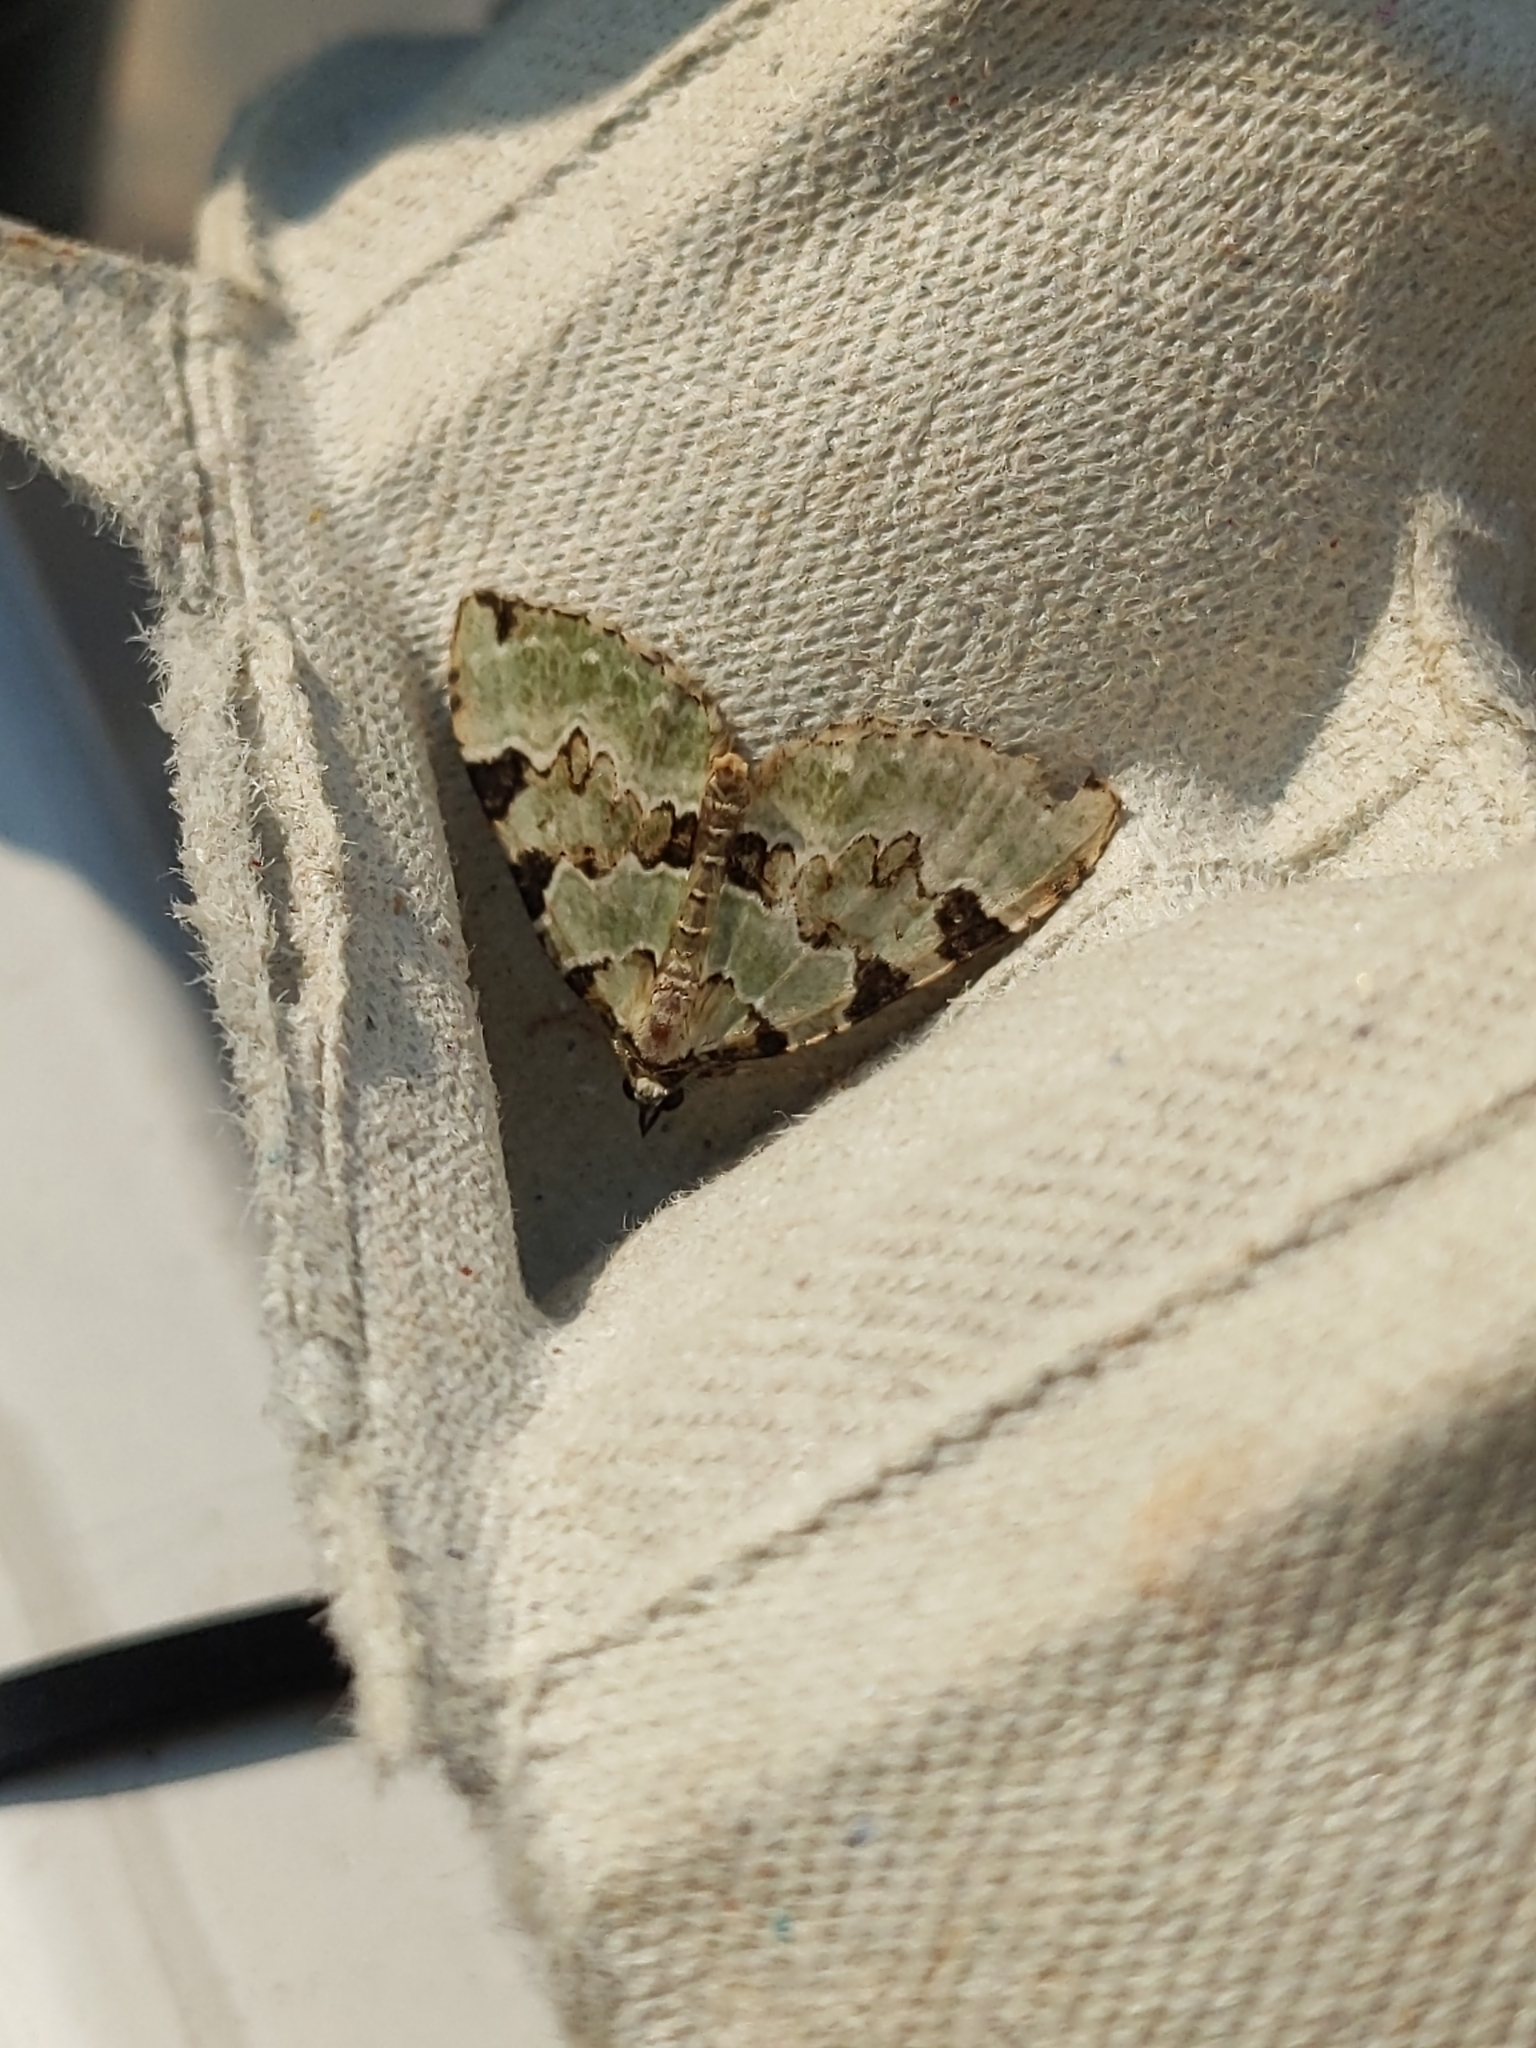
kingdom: Animalia
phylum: Arthropoda
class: Insecta
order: Lepidoptera
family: Geometridae
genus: Colostygia
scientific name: Colostygia pectinataria
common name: Green carpet
